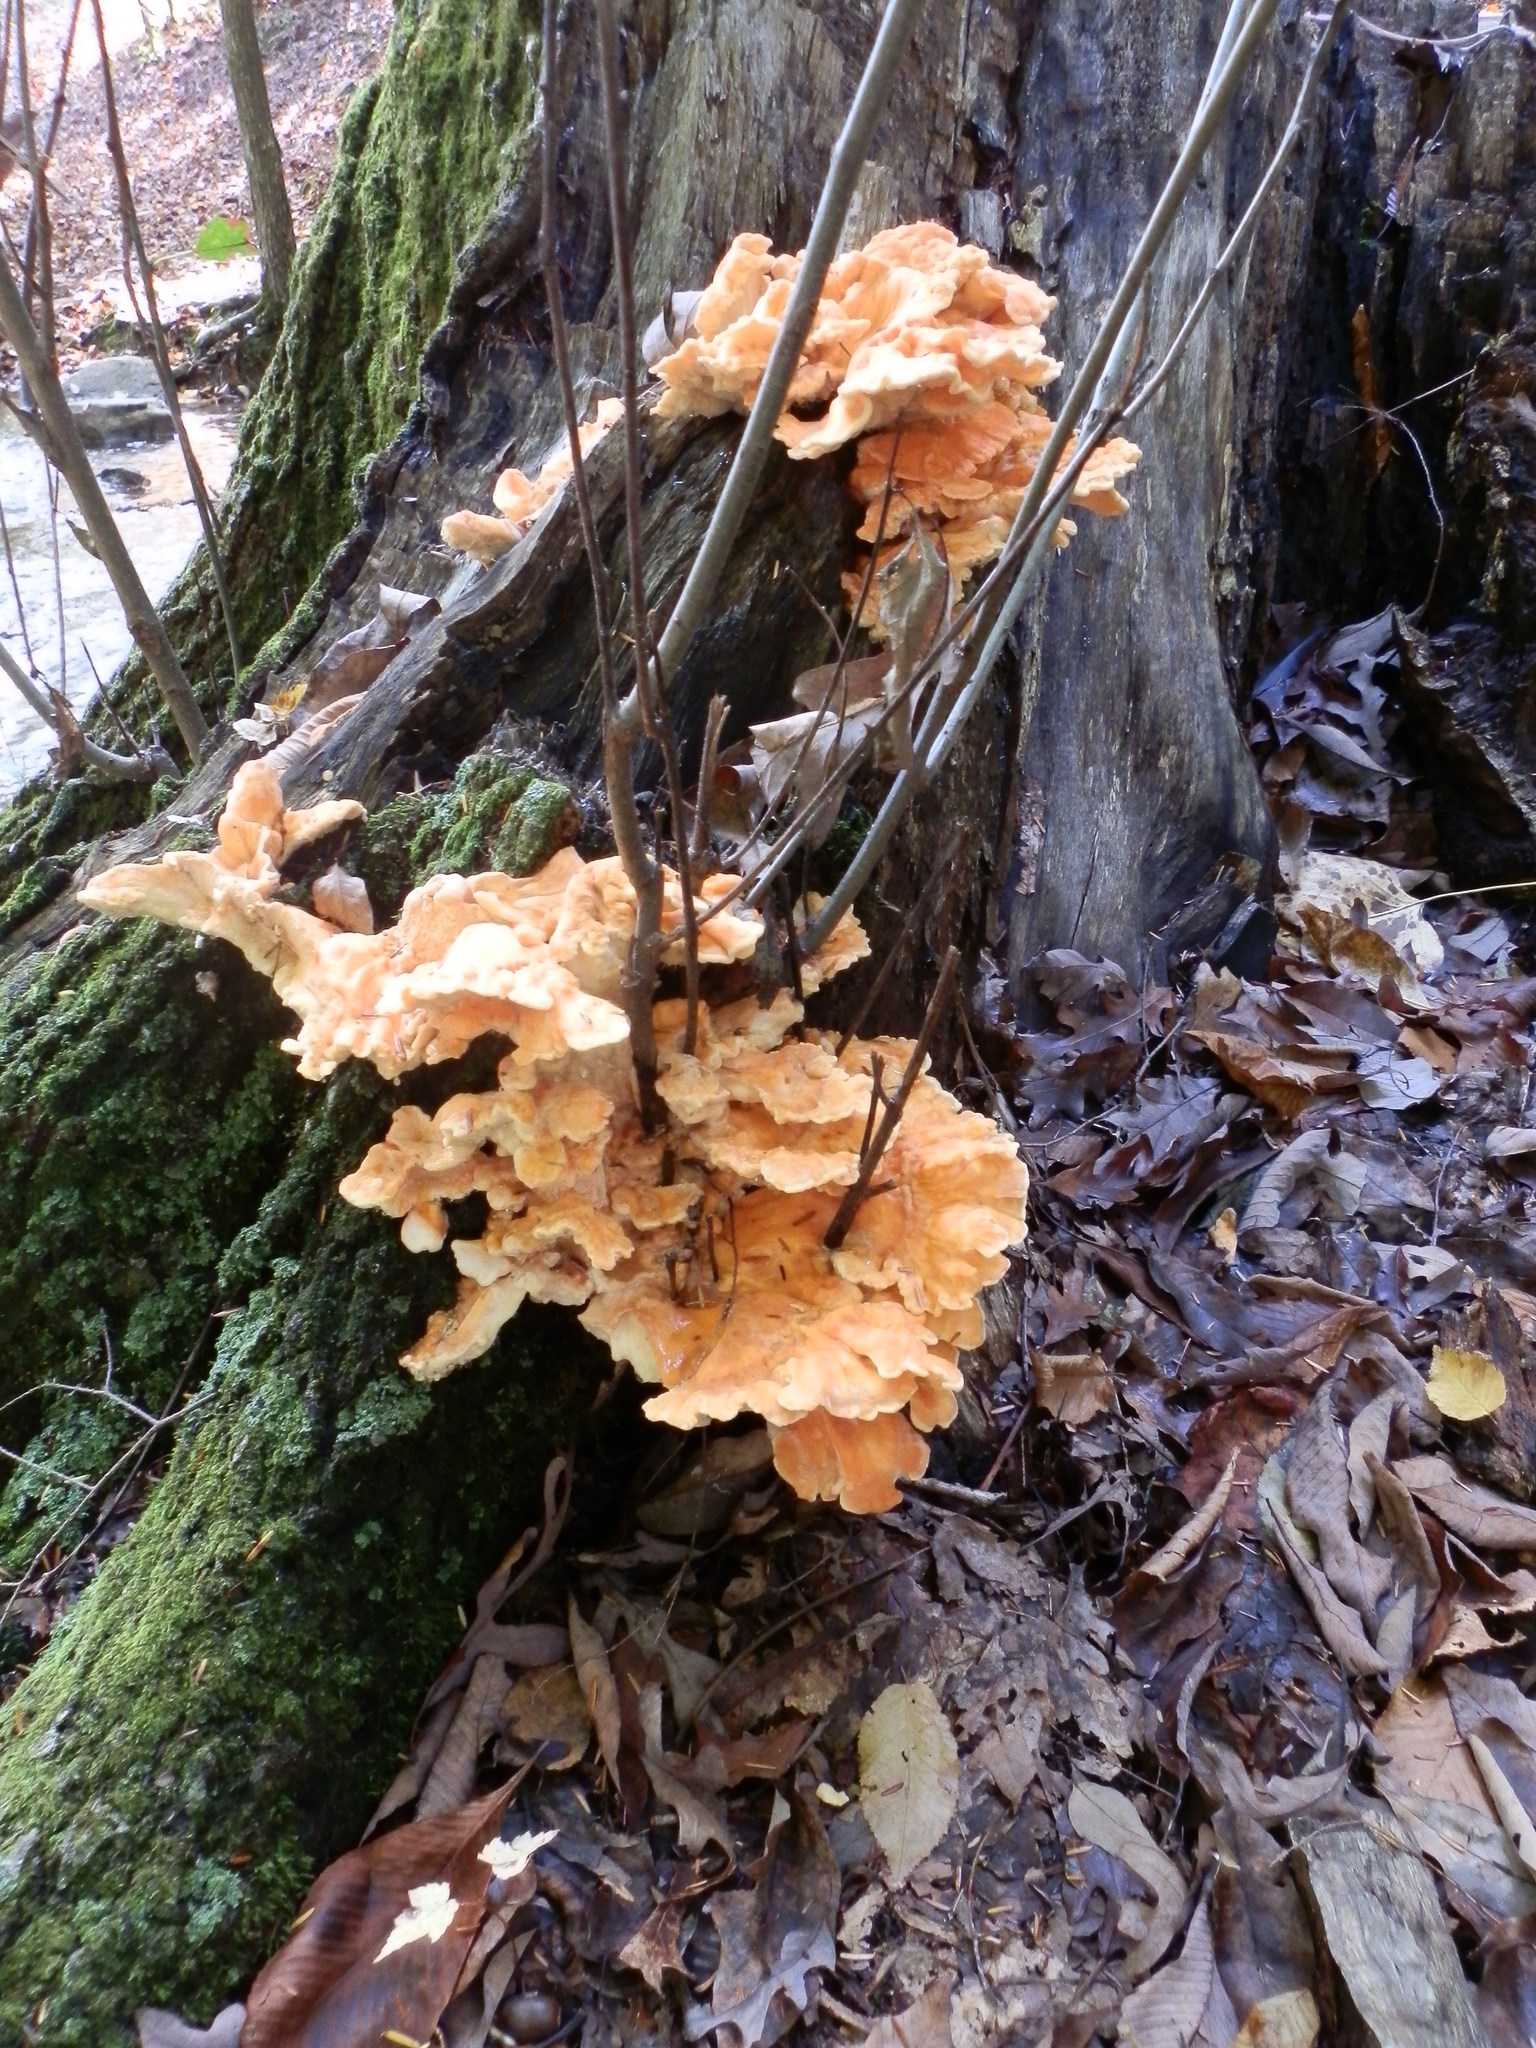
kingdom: Fungi
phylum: Basidiomycota
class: Agaricomycetes
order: Polyporales
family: Laetiporaceae
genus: Laetiporus
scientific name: Laetiporus sulphureus
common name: Chicken of the woods
